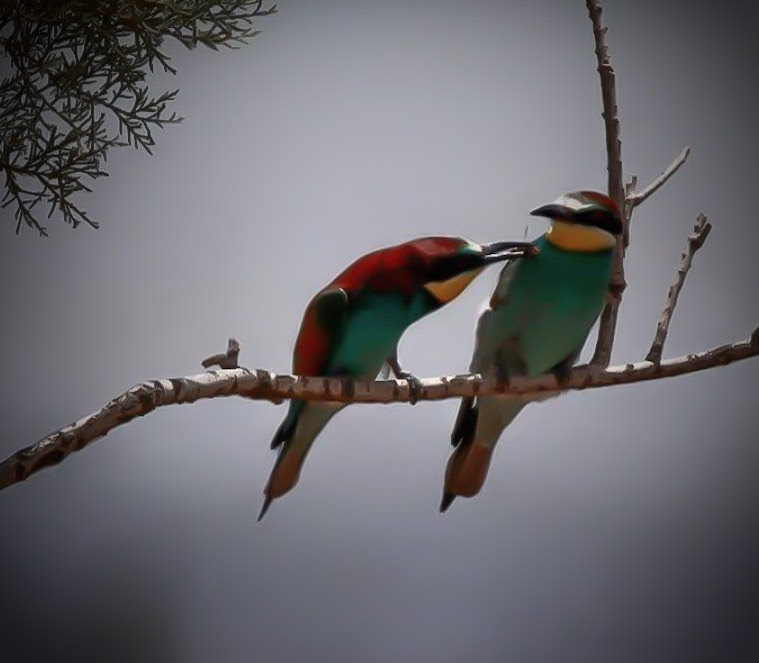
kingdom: Animalia
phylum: Chordata
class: Aves
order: Coraciiformes
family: Meropidae
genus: Merops
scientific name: Merops apiaster
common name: European bee-eater
